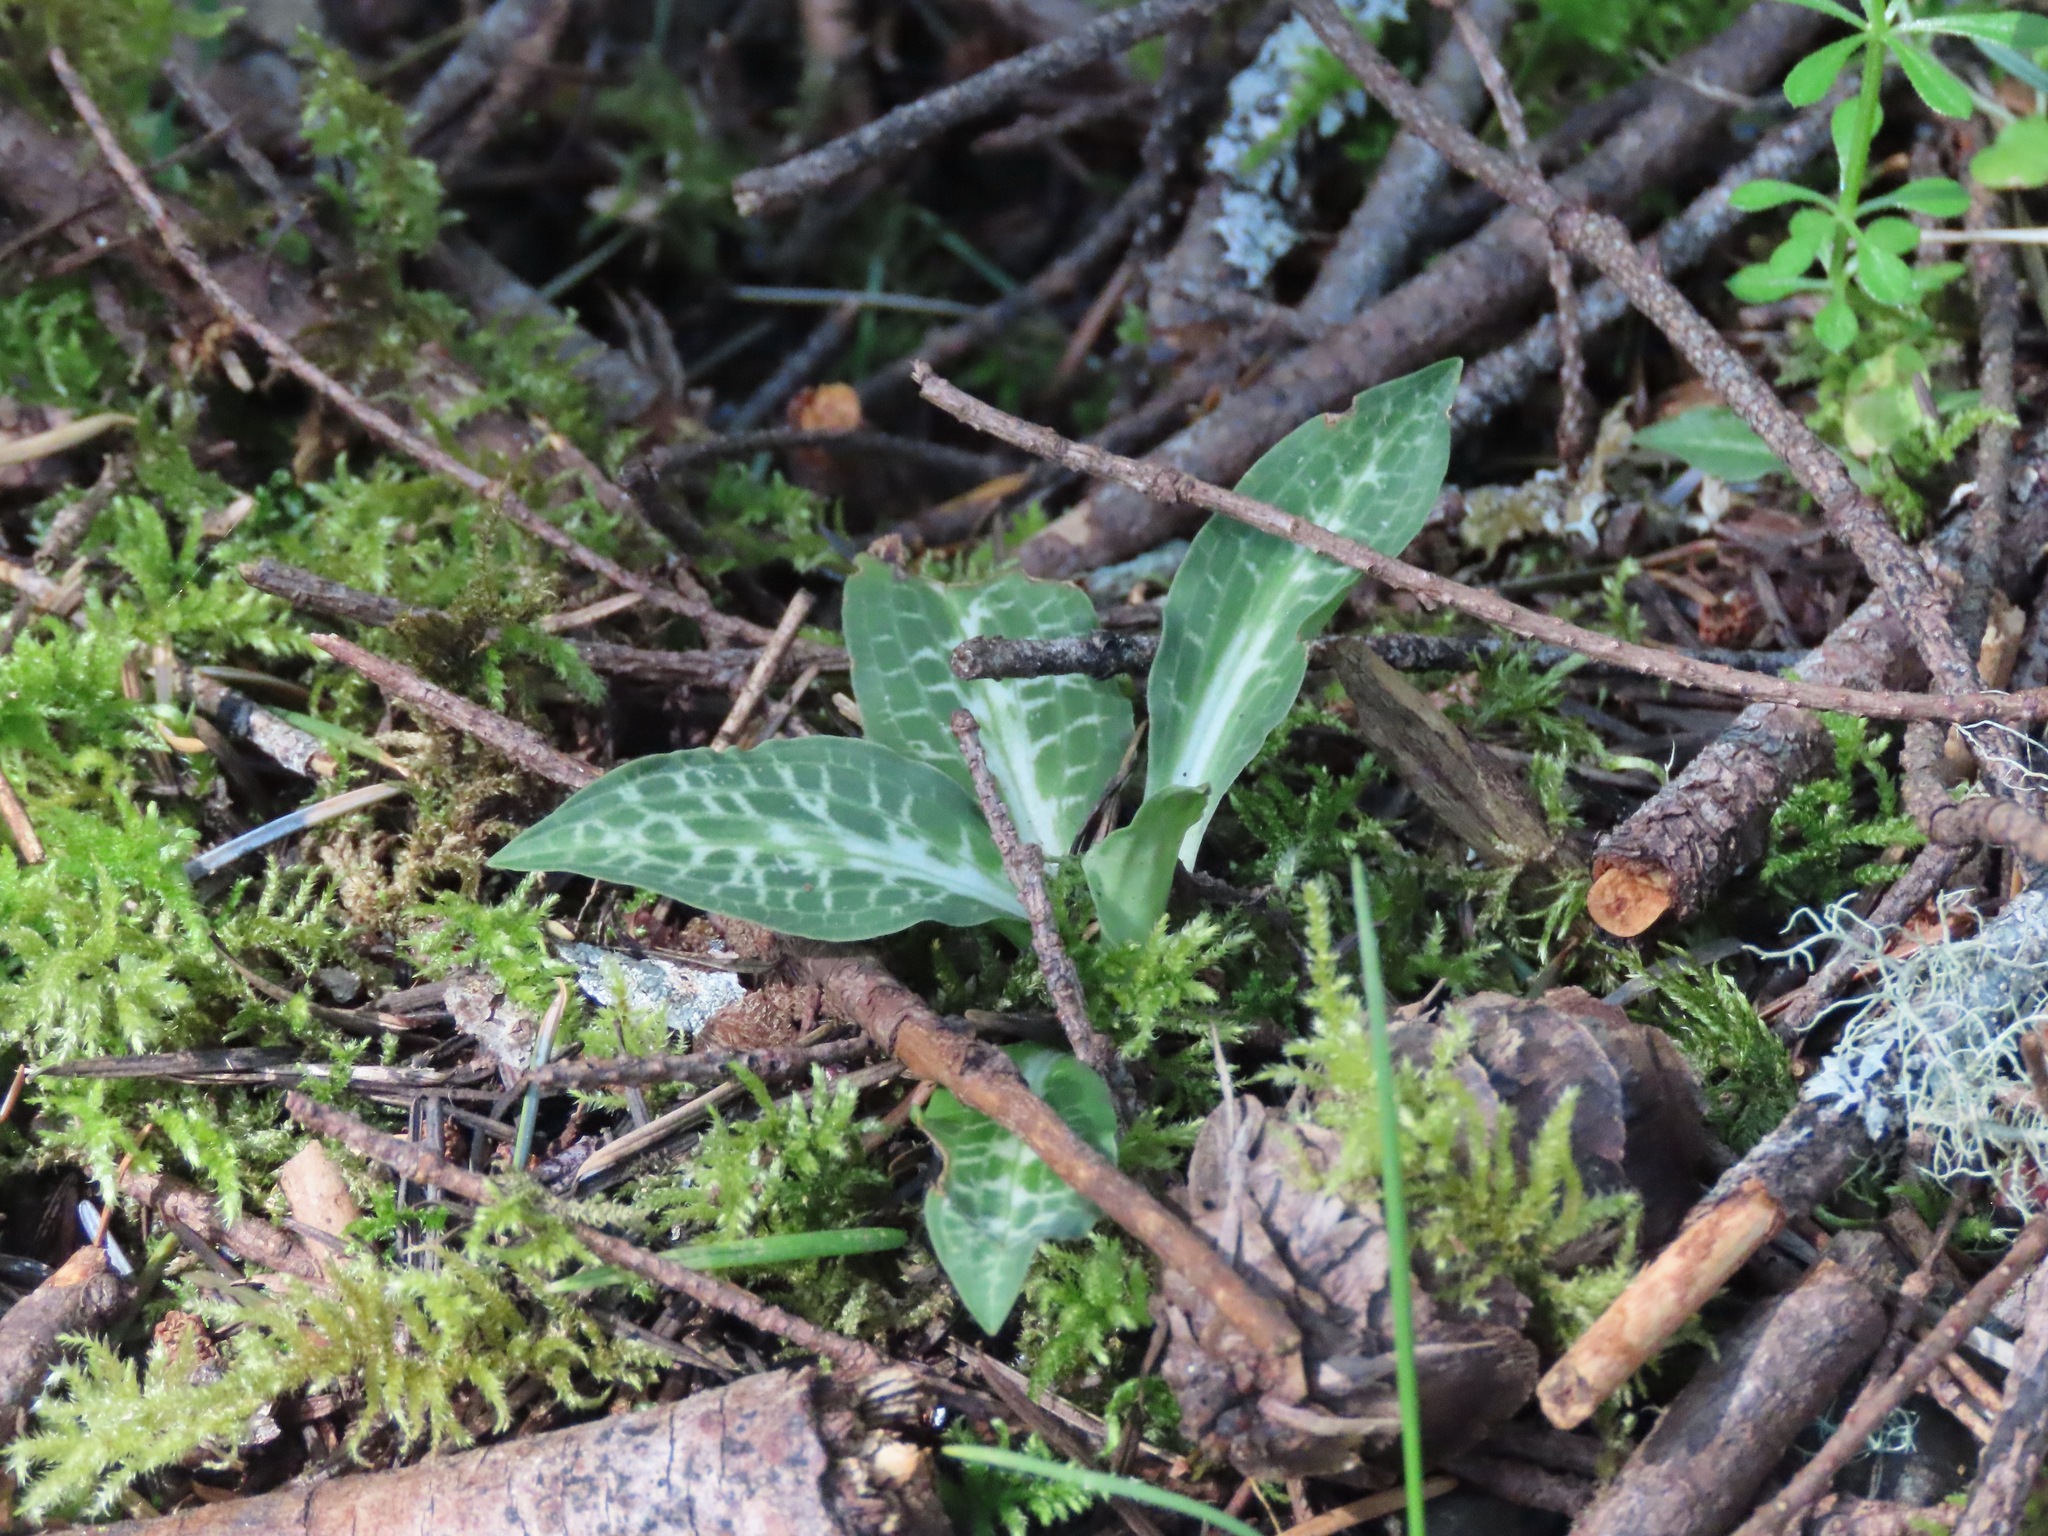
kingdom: Plantae
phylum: Tracheophyta
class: Liliopsida
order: Asparagales
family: Orchidaceae
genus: Goodyera
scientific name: Goodyera oblongifolia
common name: Giant rattlesnake-plantain
